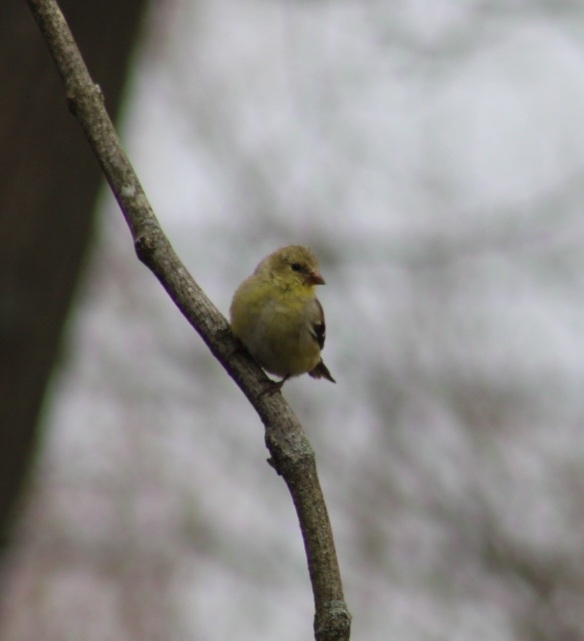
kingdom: Animalia
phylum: Chordata
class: Aves
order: Passeriformes
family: Fringillidae
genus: Spinus
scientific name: Spinus tristis
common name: American goldfinch
